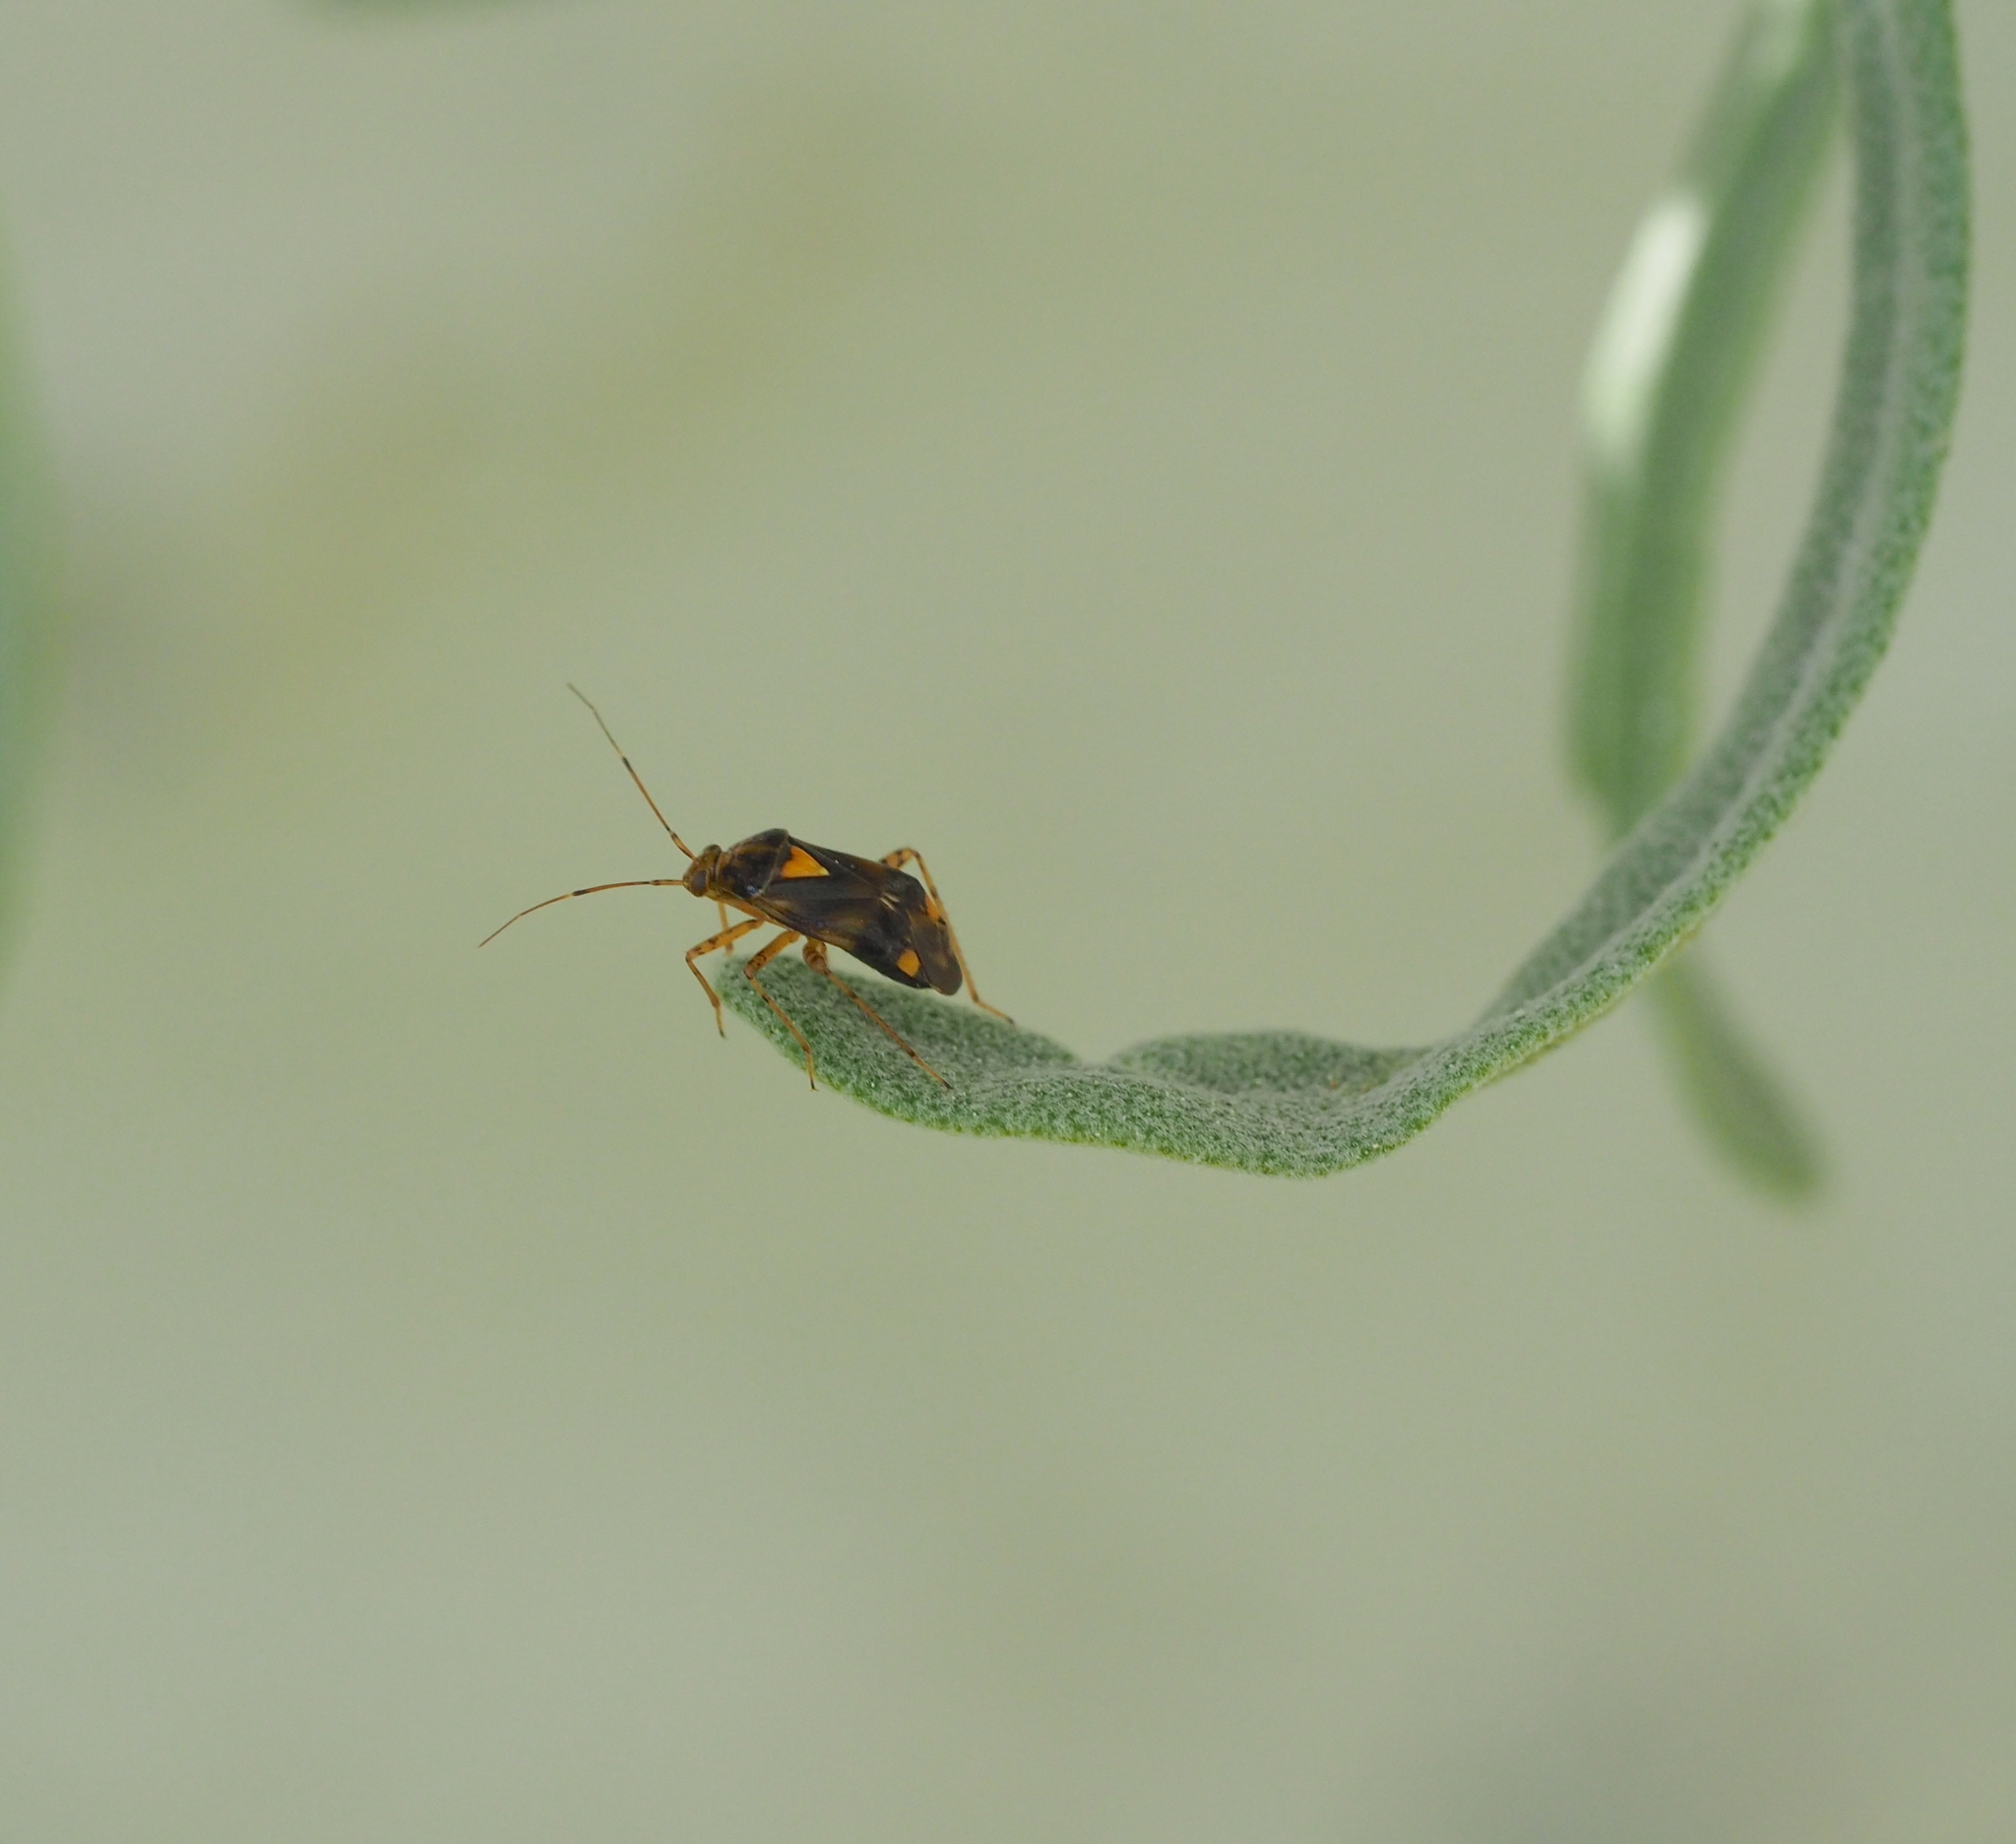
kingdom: Animalia
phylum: Arthropoda
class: Insecta
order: Hemiptera
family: Miridae
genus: Liocoris
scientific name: Liocoris tripustulatus
